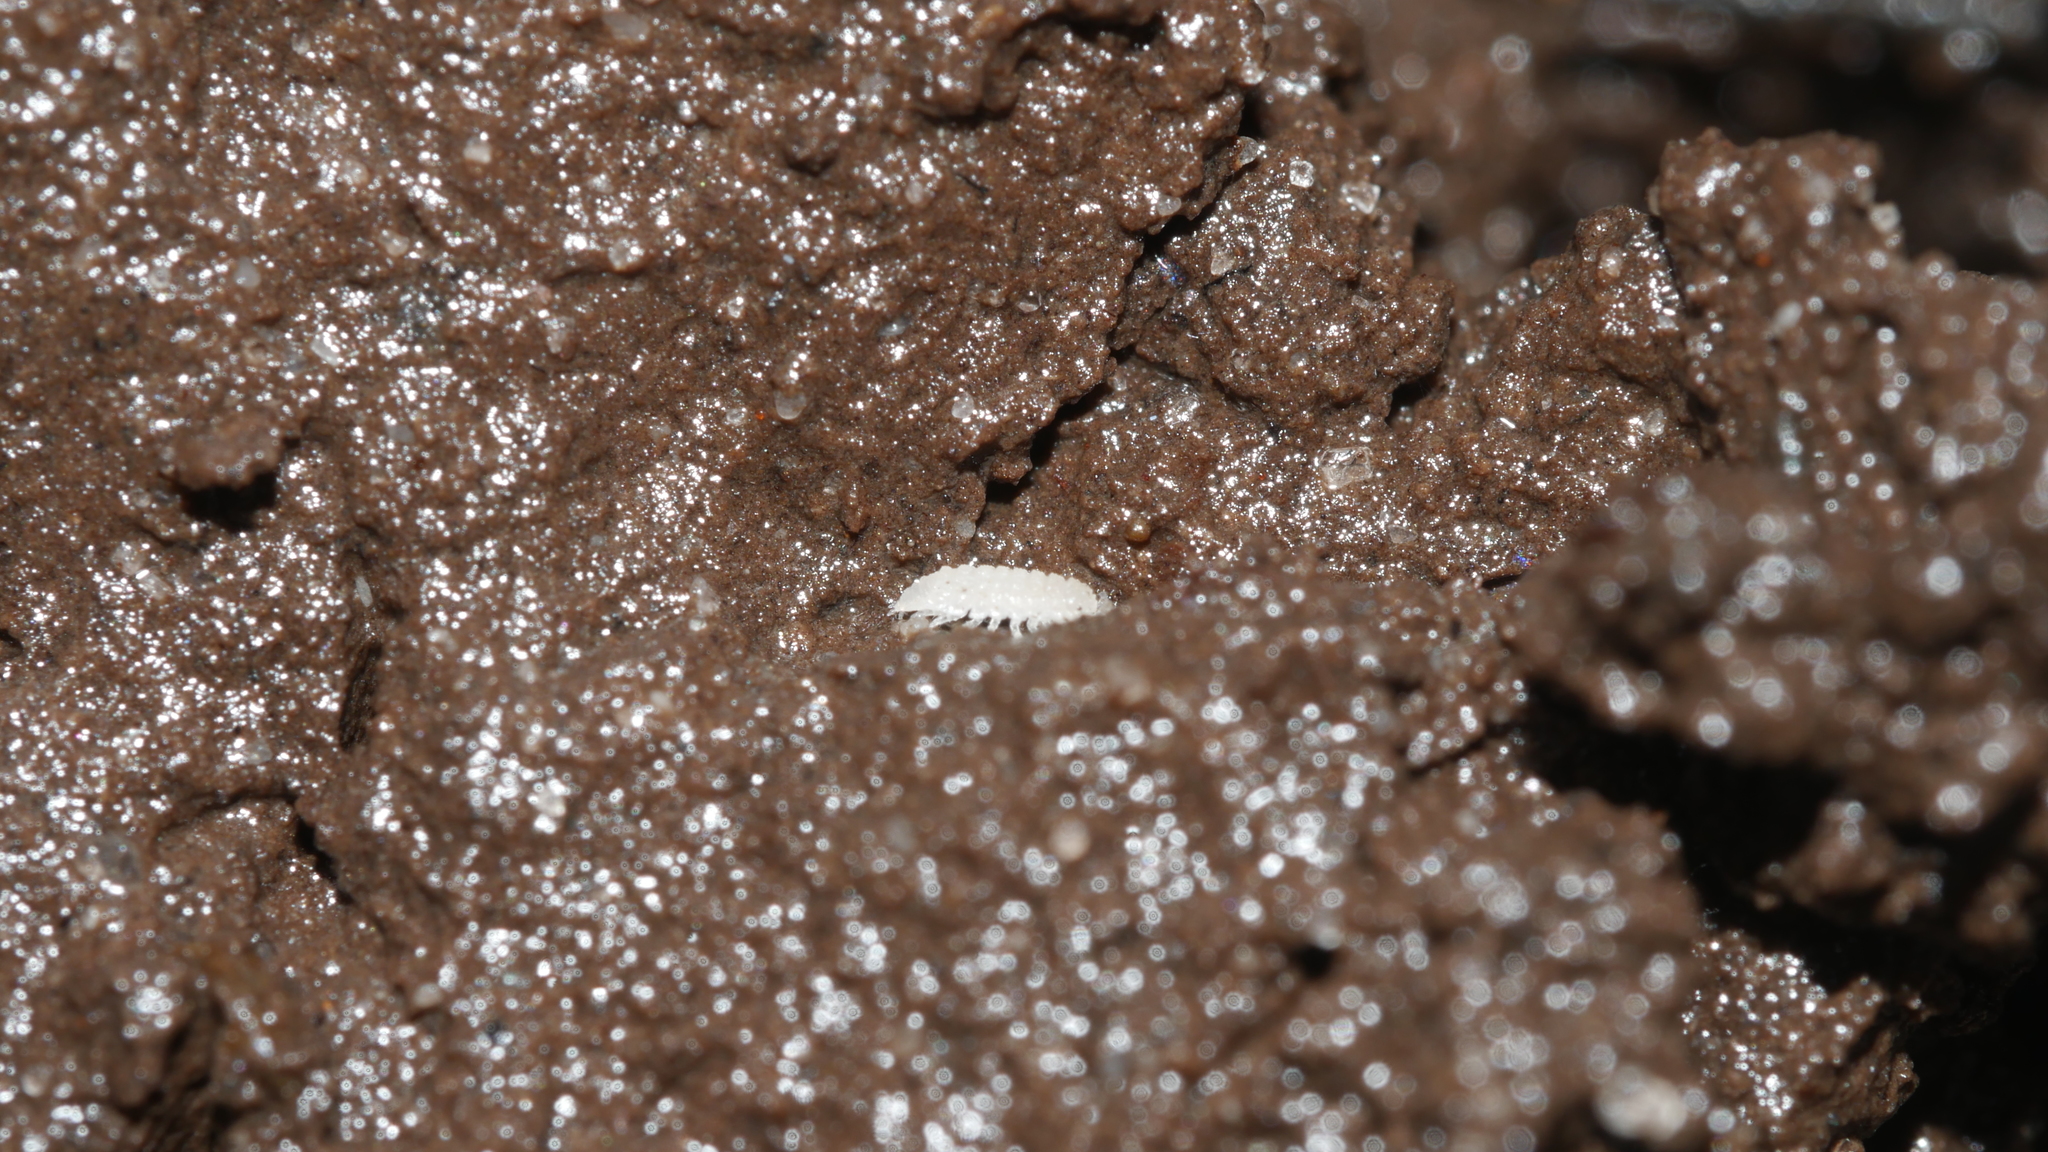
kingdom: Animalia
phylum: Arthropoda
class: Malacostraca
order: Isopoda
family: Trichoniscidae
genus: Haplophthalmus
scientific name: Haplophthalmus danicus
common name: Pillbug
